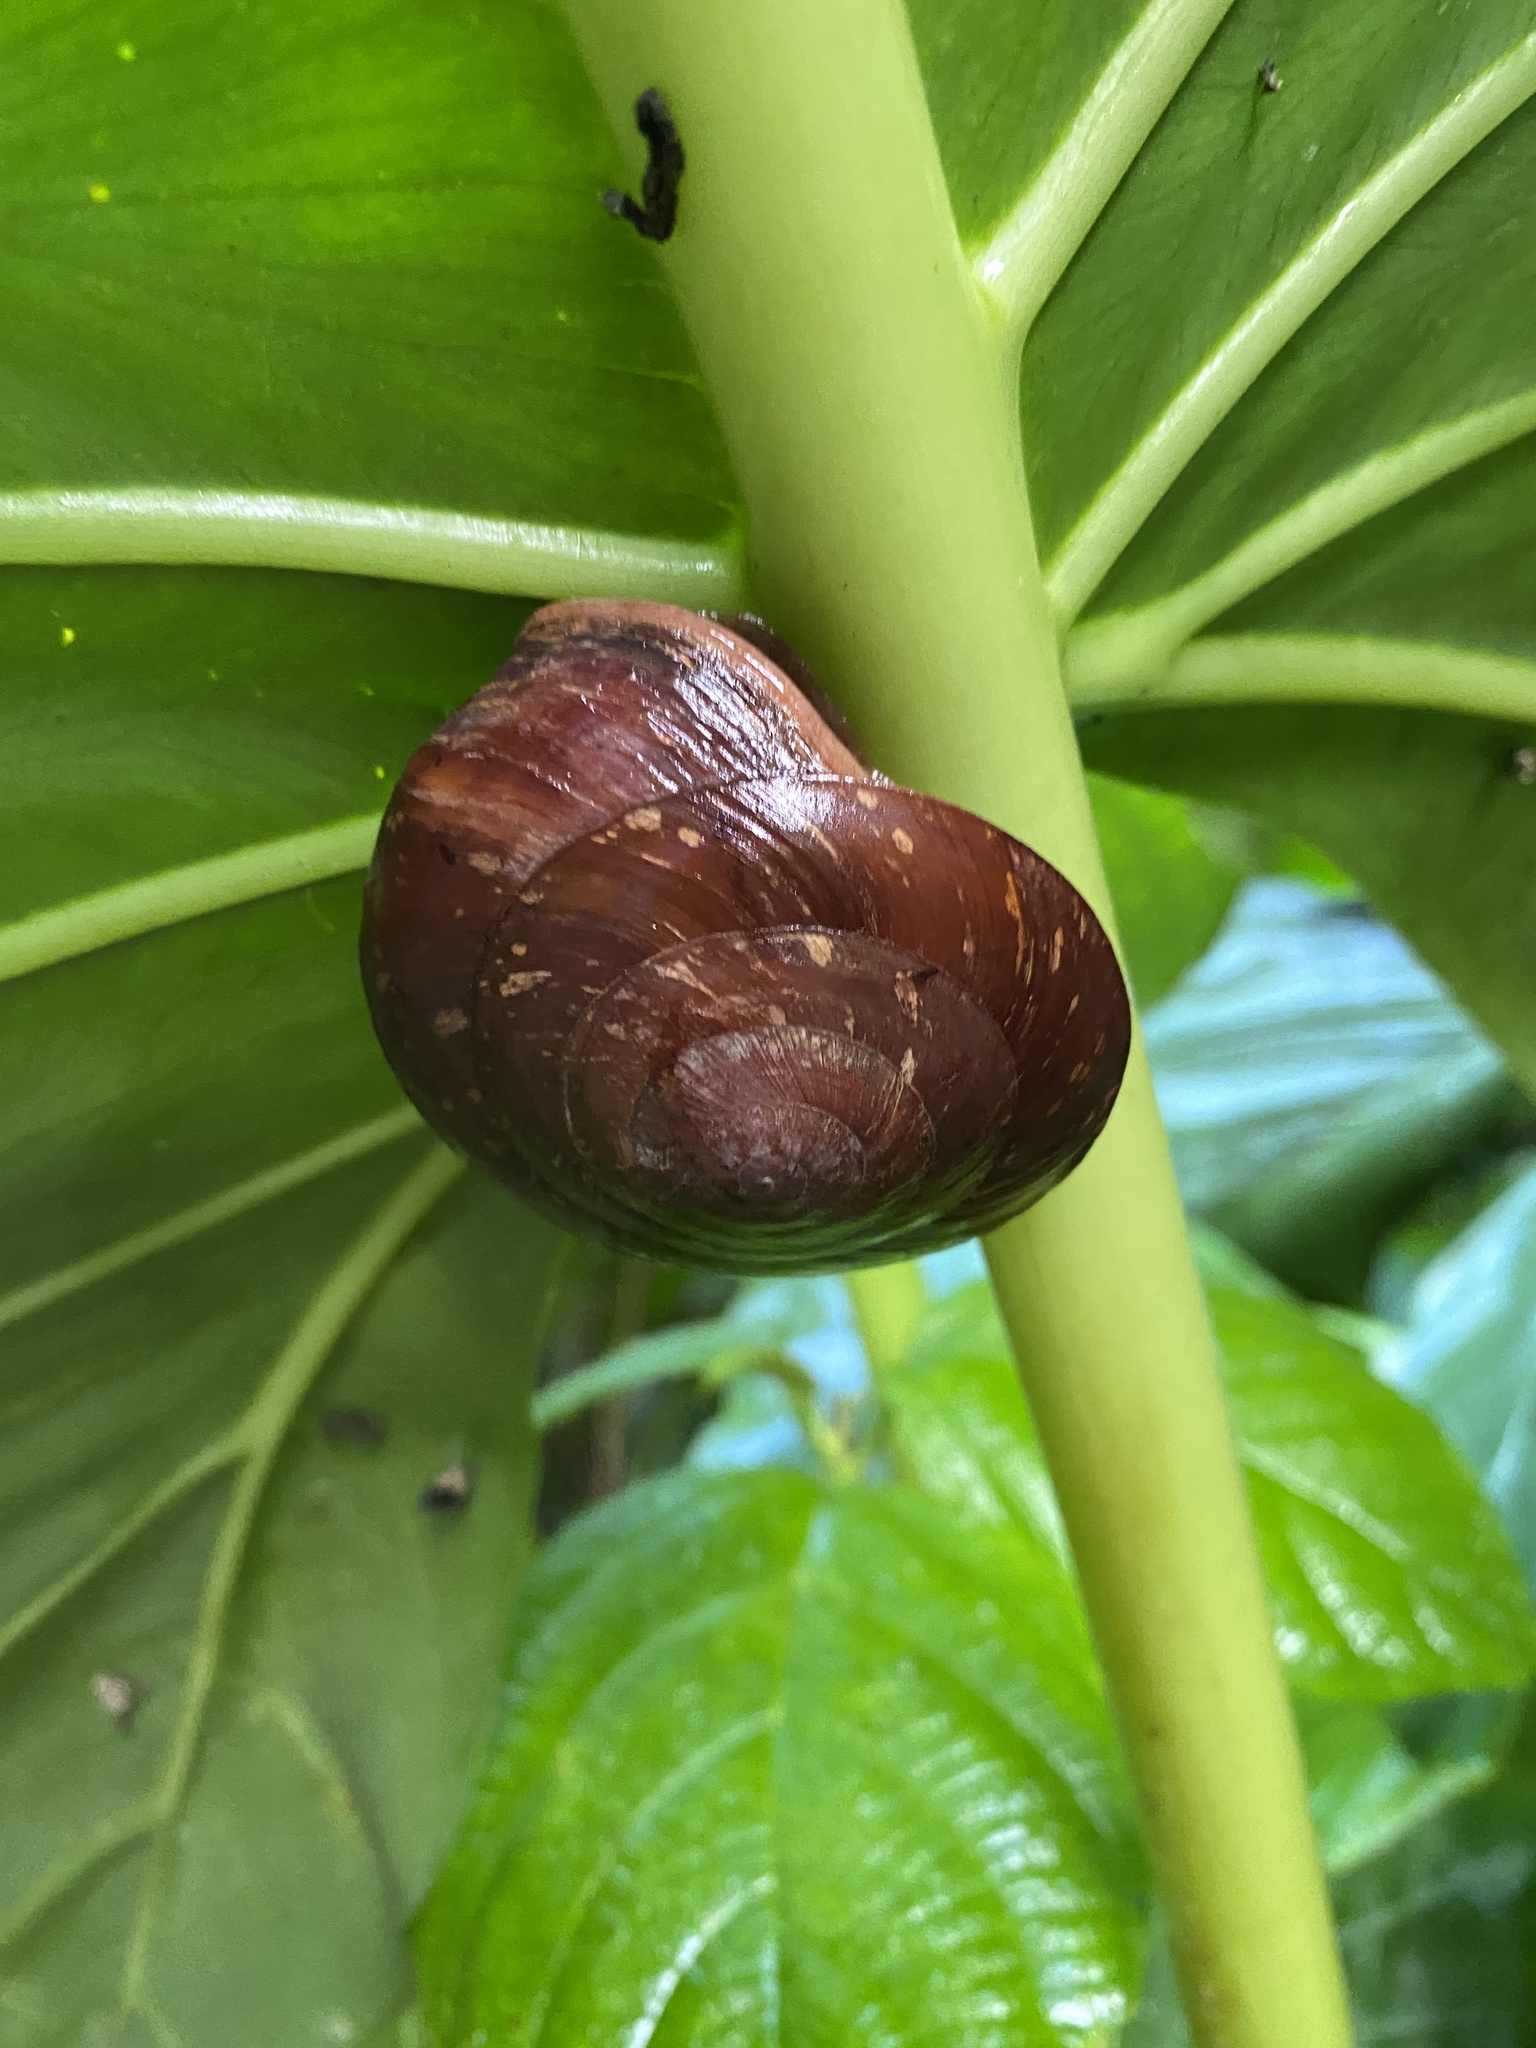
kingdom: Animalia
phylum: Mollusca
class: Gastropoda
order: Stylommatophora
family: Solaropsidae
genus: Caracolus
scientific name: Caracolus carocolla
